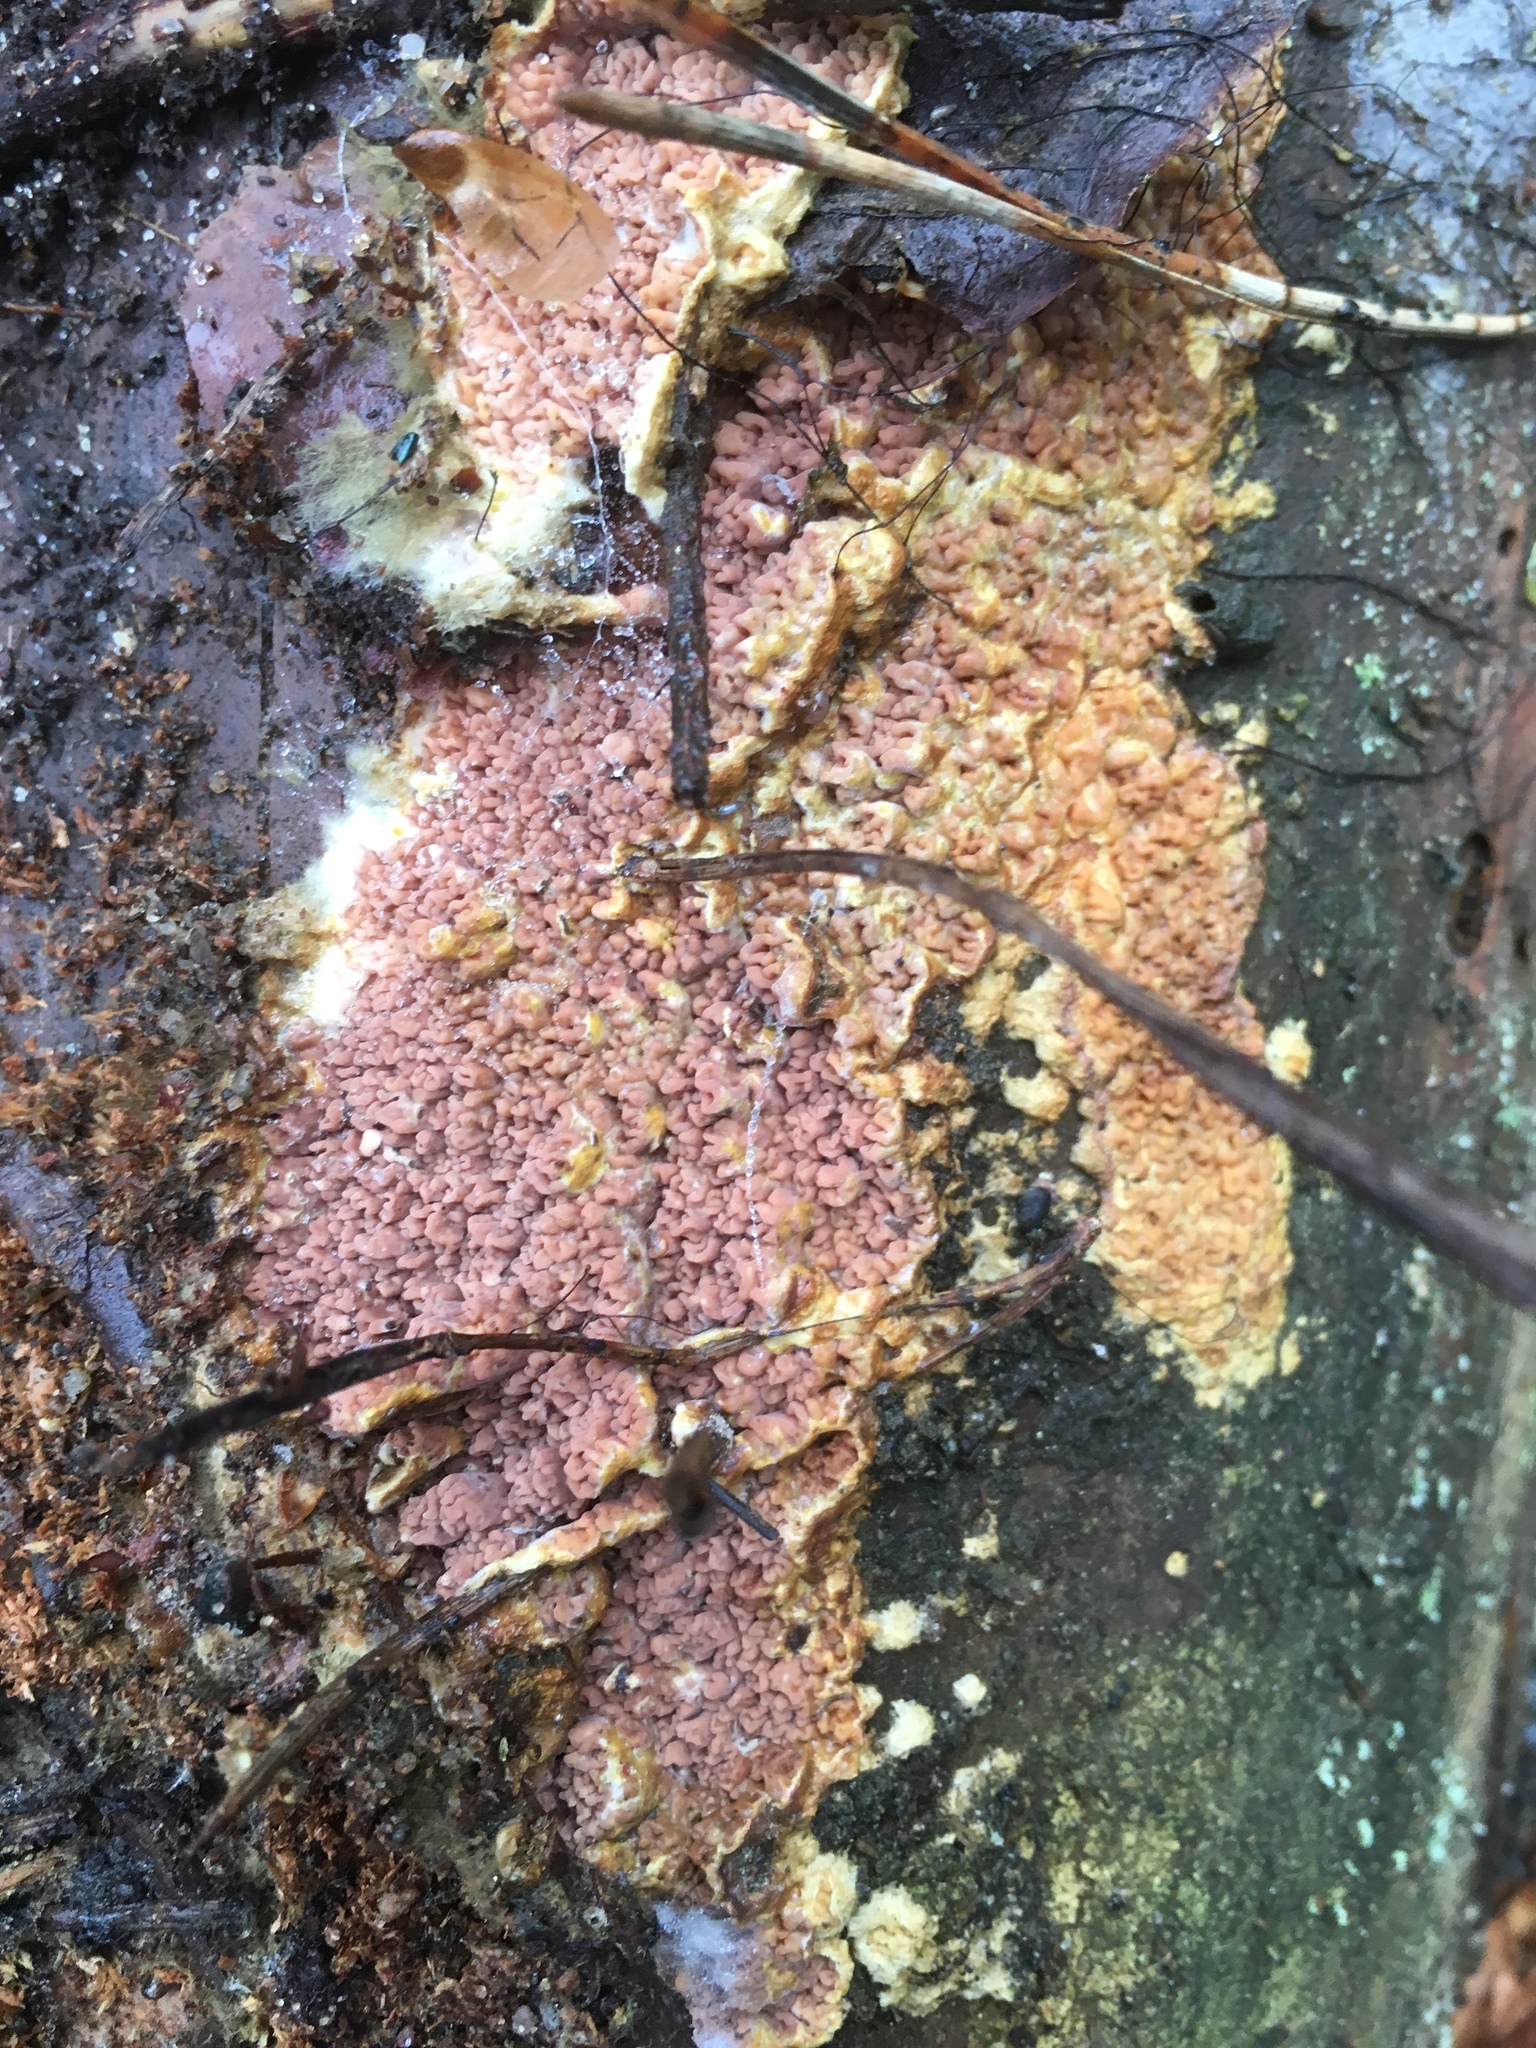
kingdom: Fungi
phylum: Basidiomycota
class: Agaricomycetes
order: Boletales
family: Serpulaceae
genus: Serpula
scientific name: Serpula himantioides
